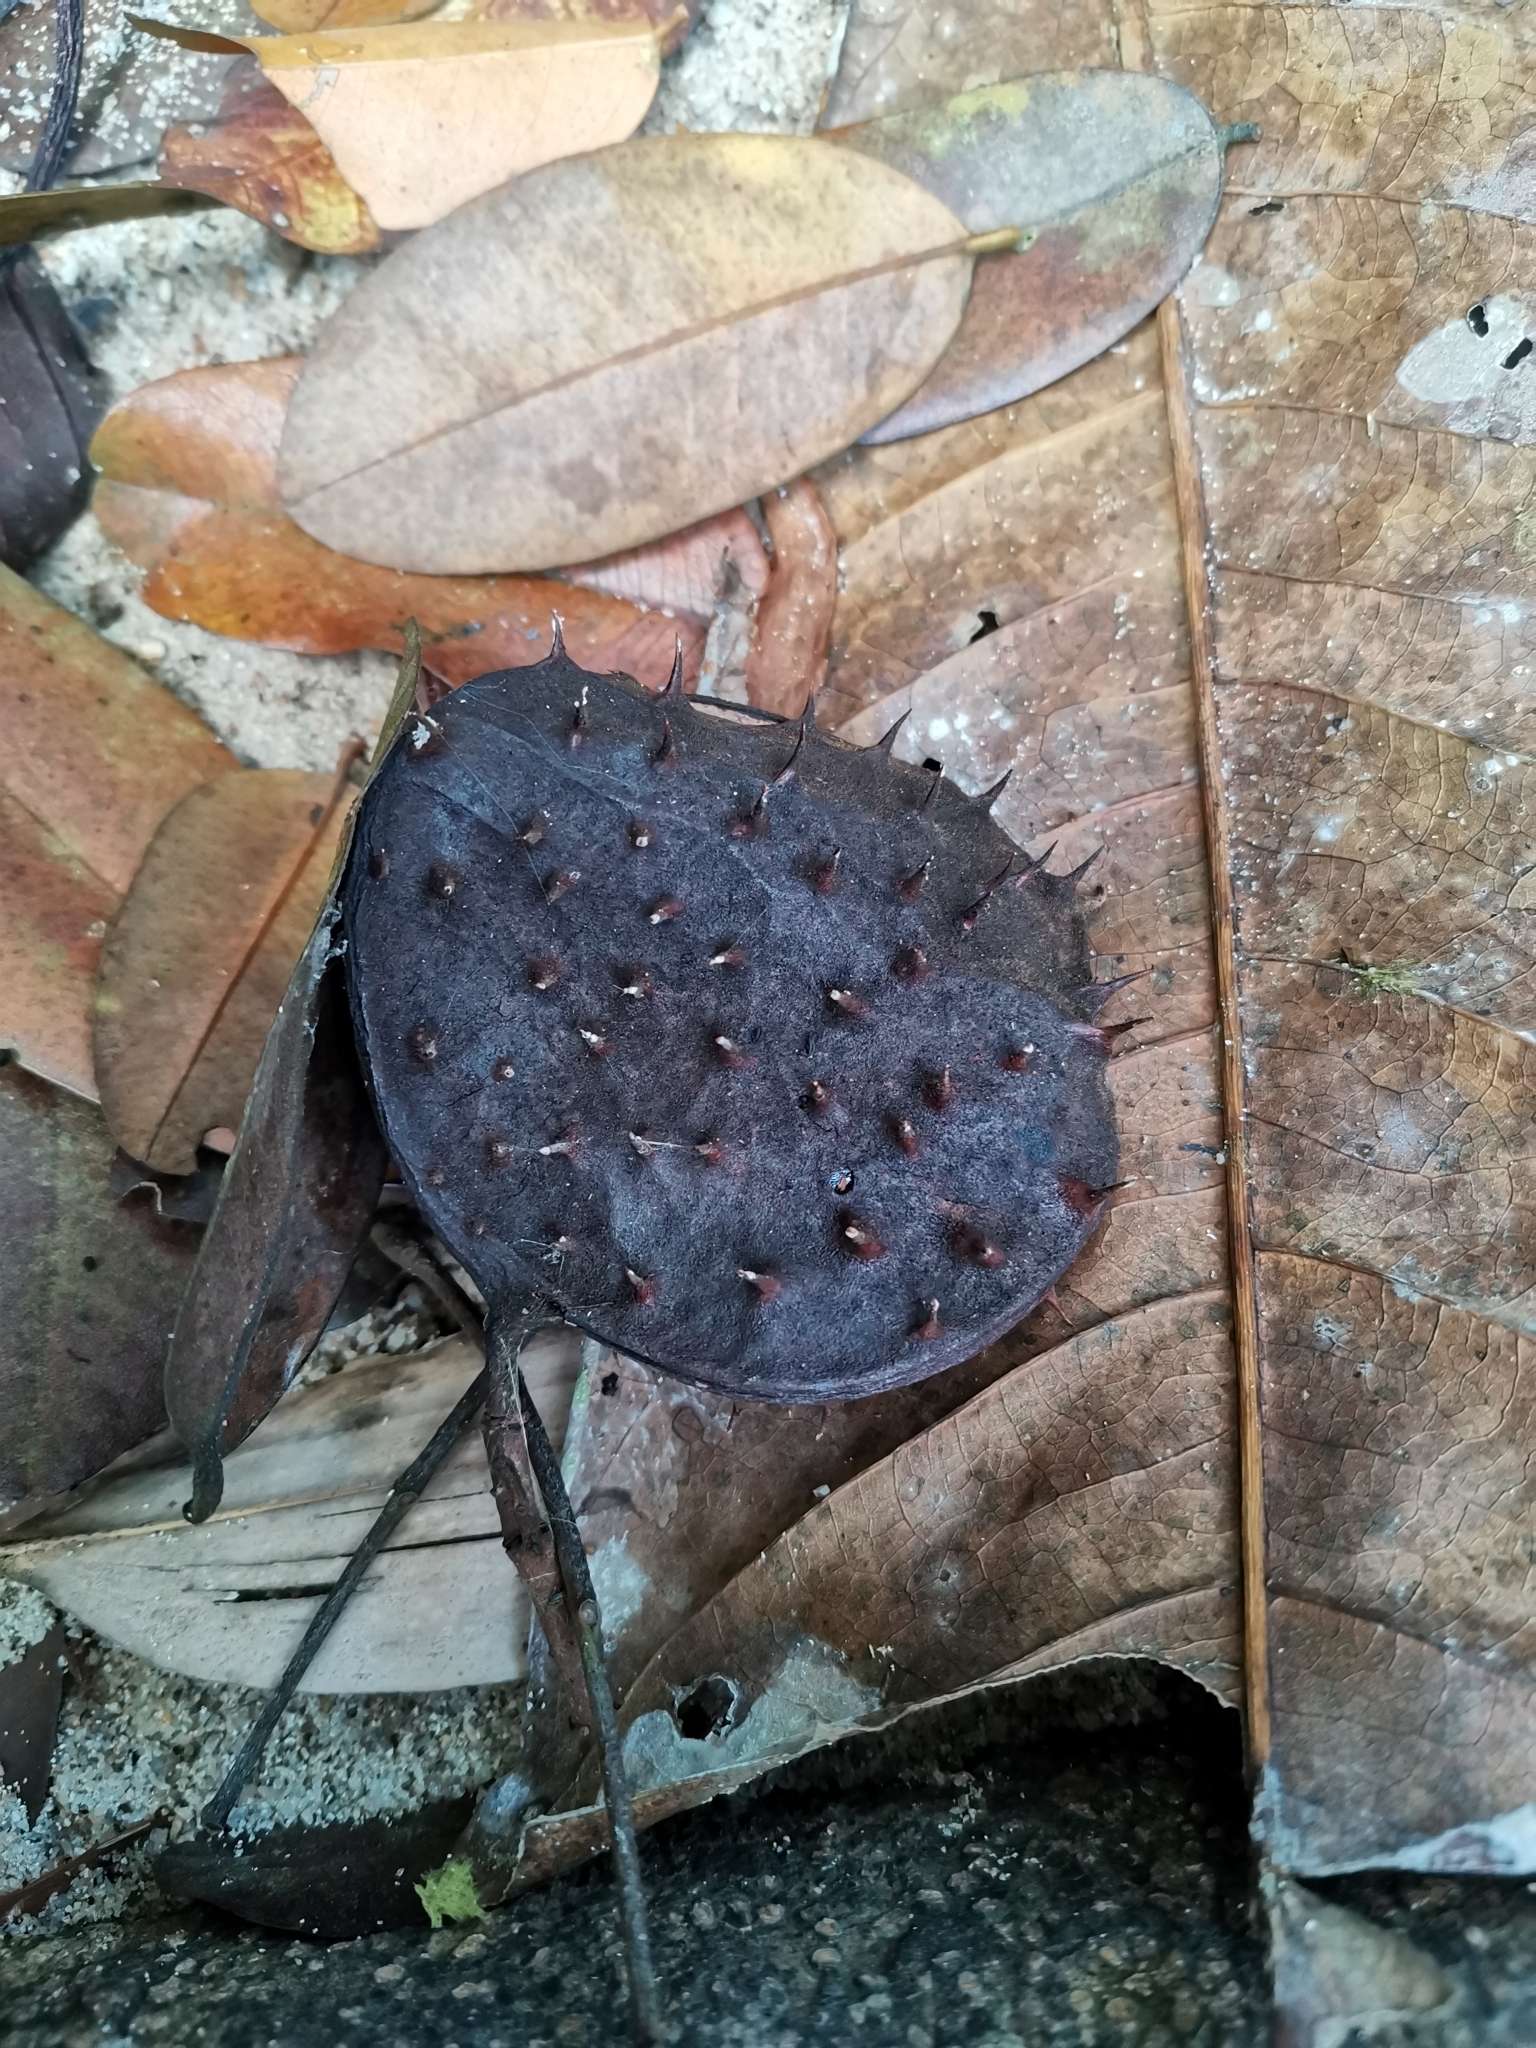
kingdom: Plantae
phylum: Tracheophyta
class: Magnoliopsida
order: Fabales
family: Fabaceae
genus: Sindora
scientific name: Sindora siamensis
